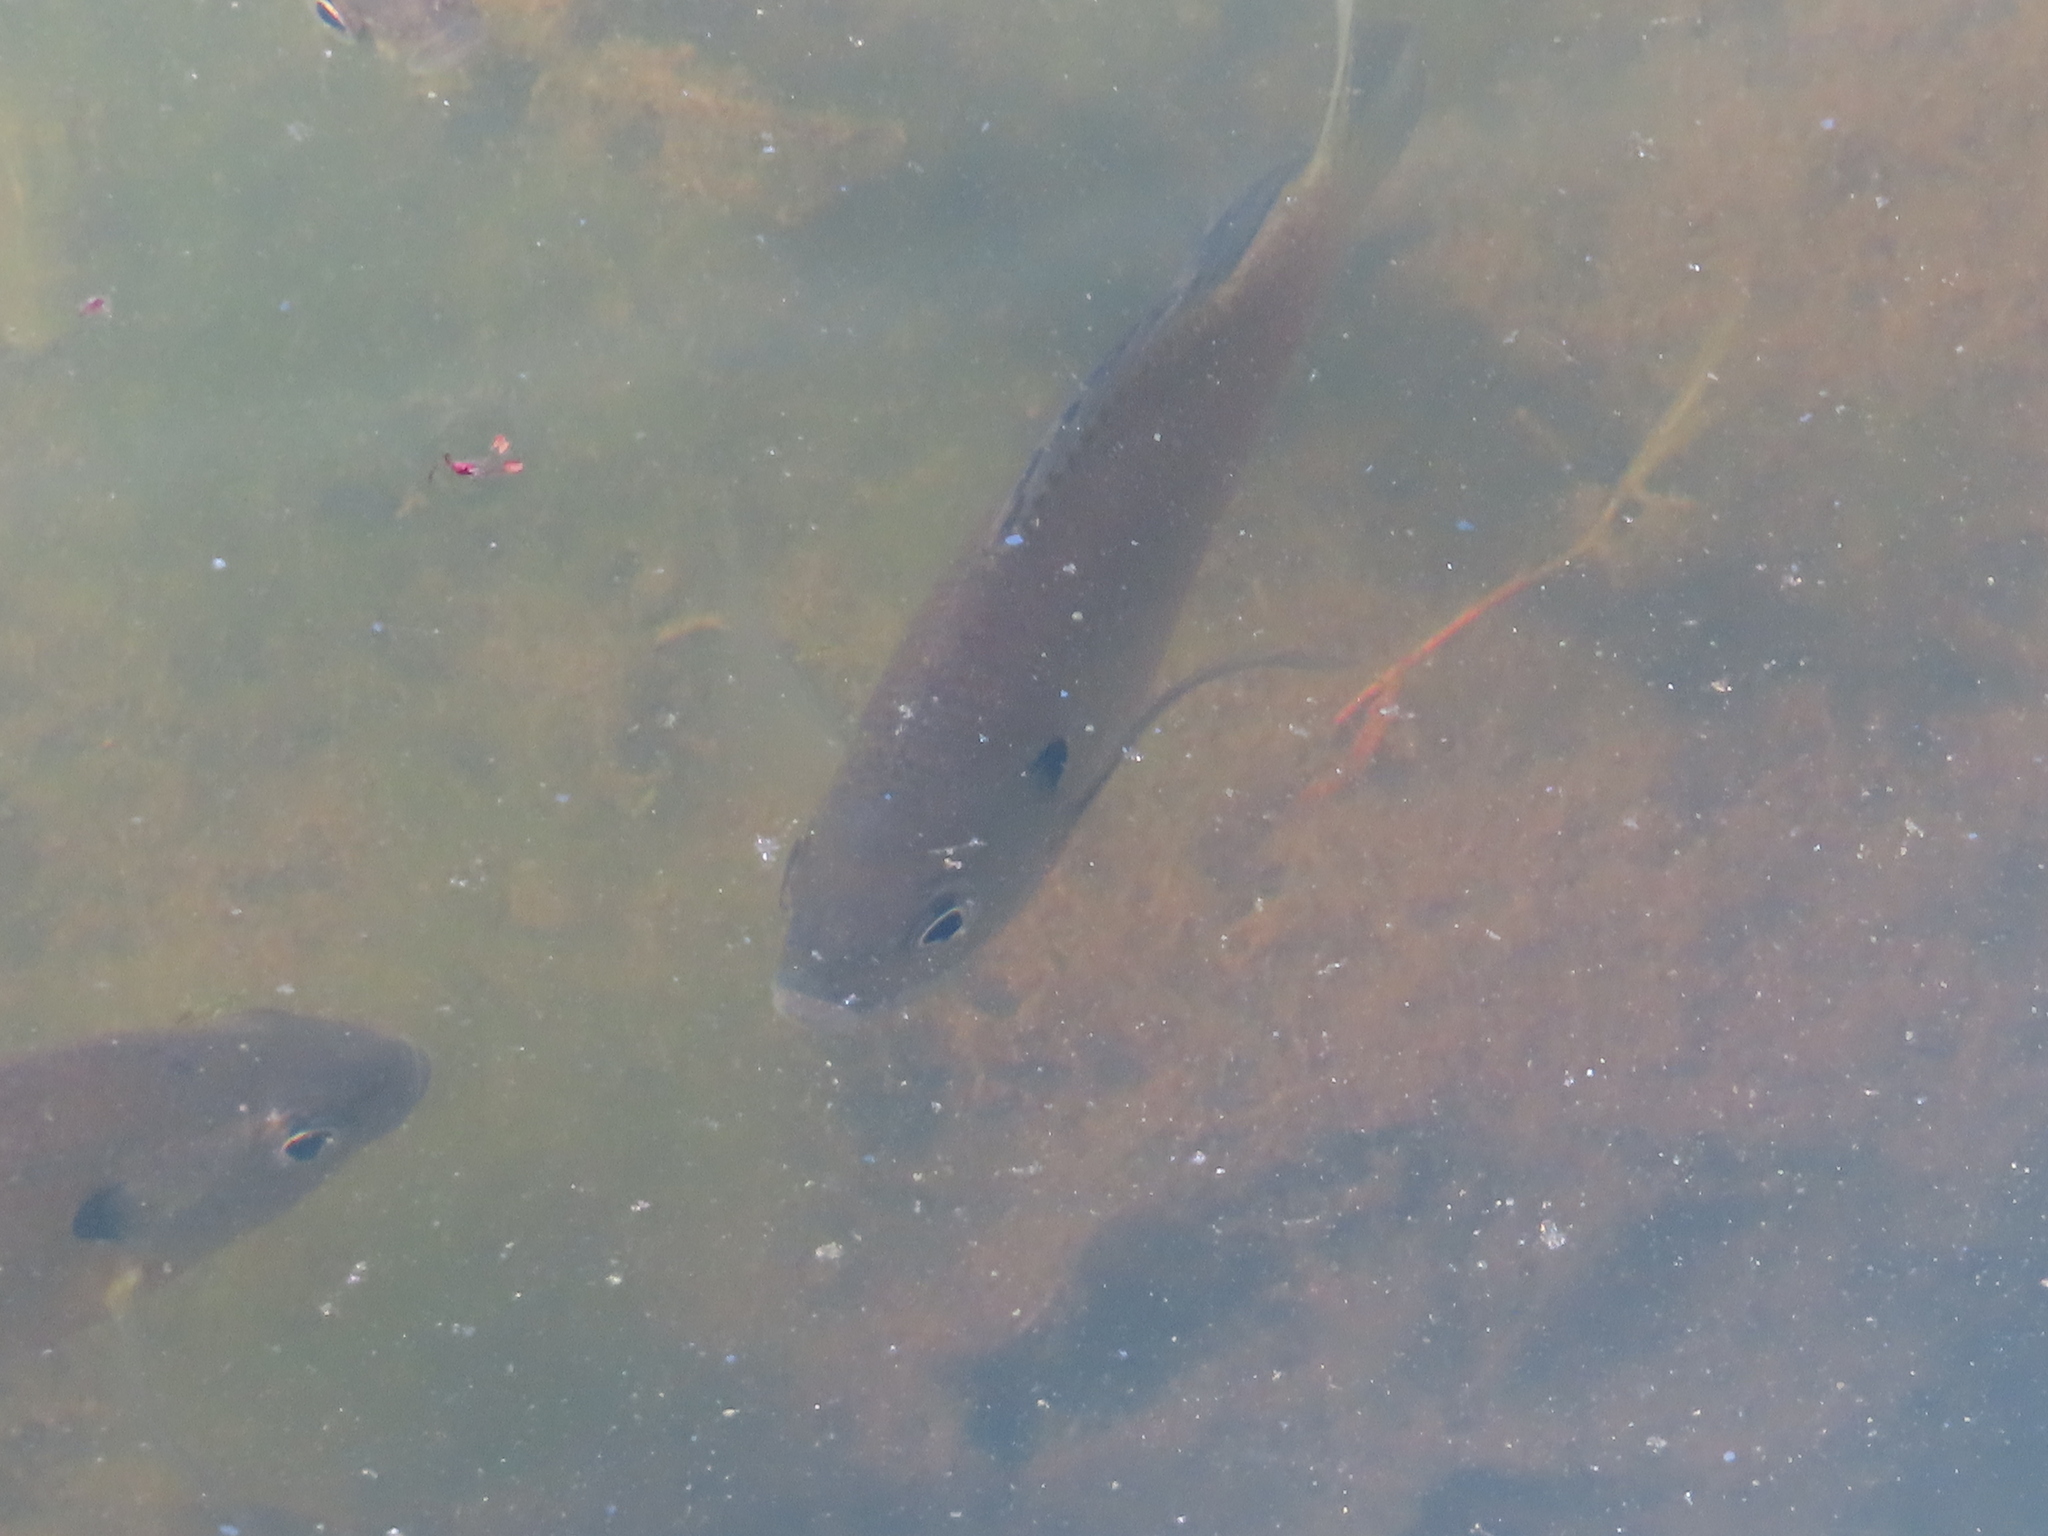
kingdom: Animalia
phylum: Chordata
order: Perciformes
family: Centrarchidae
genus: Lepomis
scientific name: Lepomis macrochirus
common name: Bluegill
